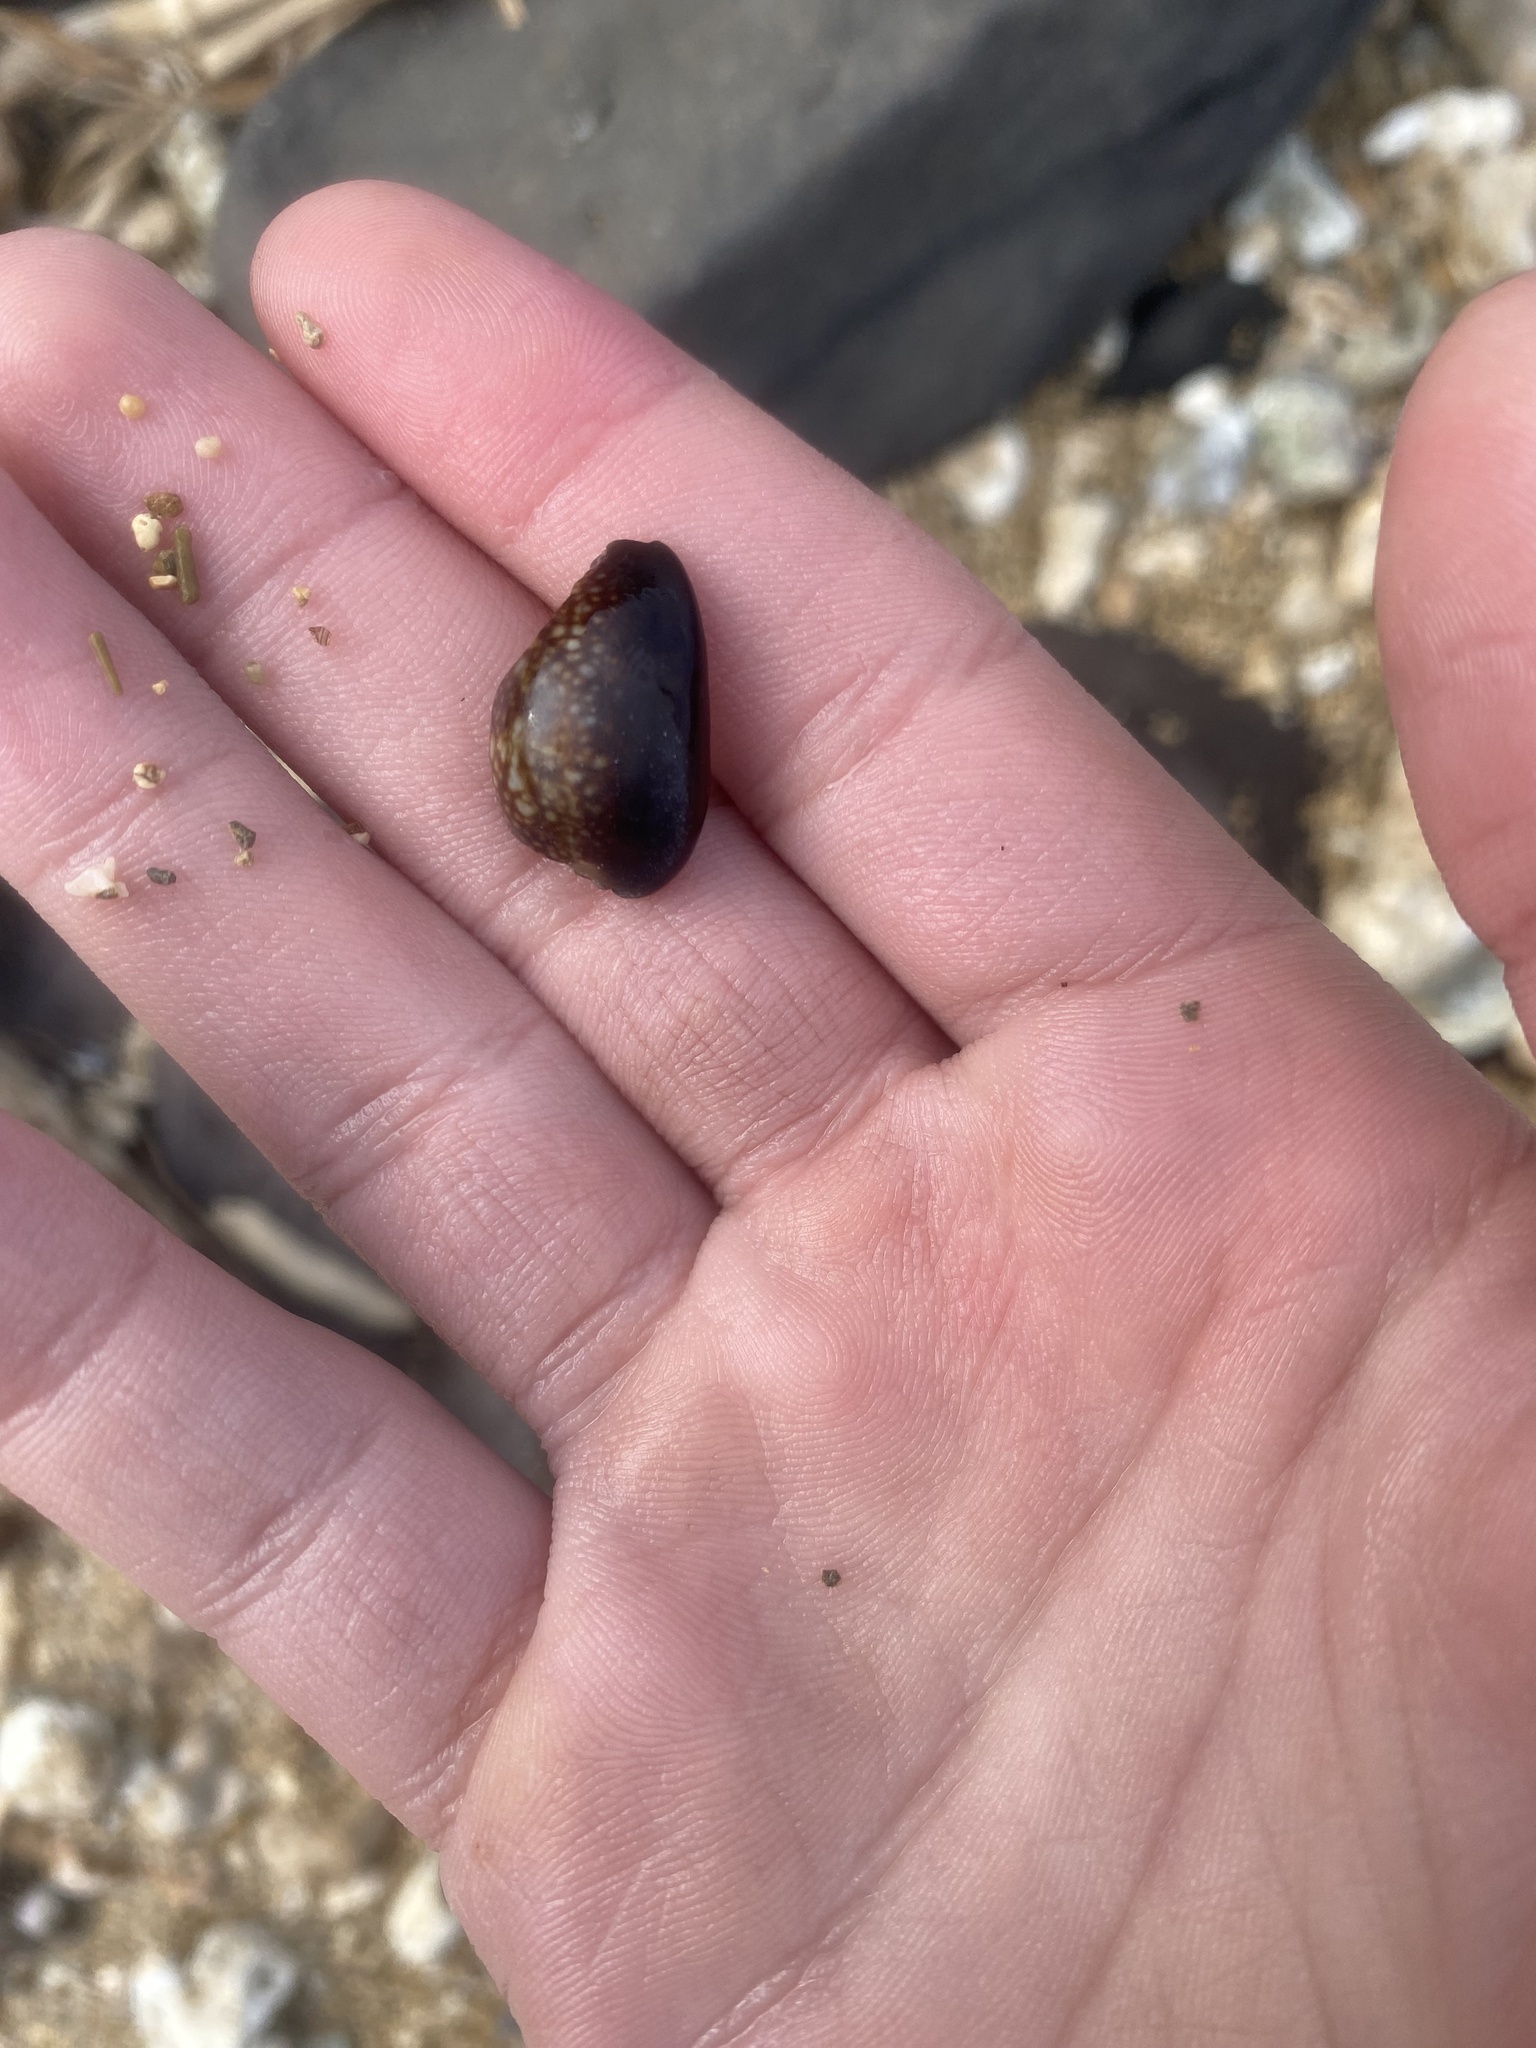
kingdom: Animalia
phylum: Mollusca
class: Gastropoda
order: Littorinimorpha
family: Cypraeidae
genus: Monetaria
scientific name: Monetaria caputophidii
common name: Snake's head cowry
